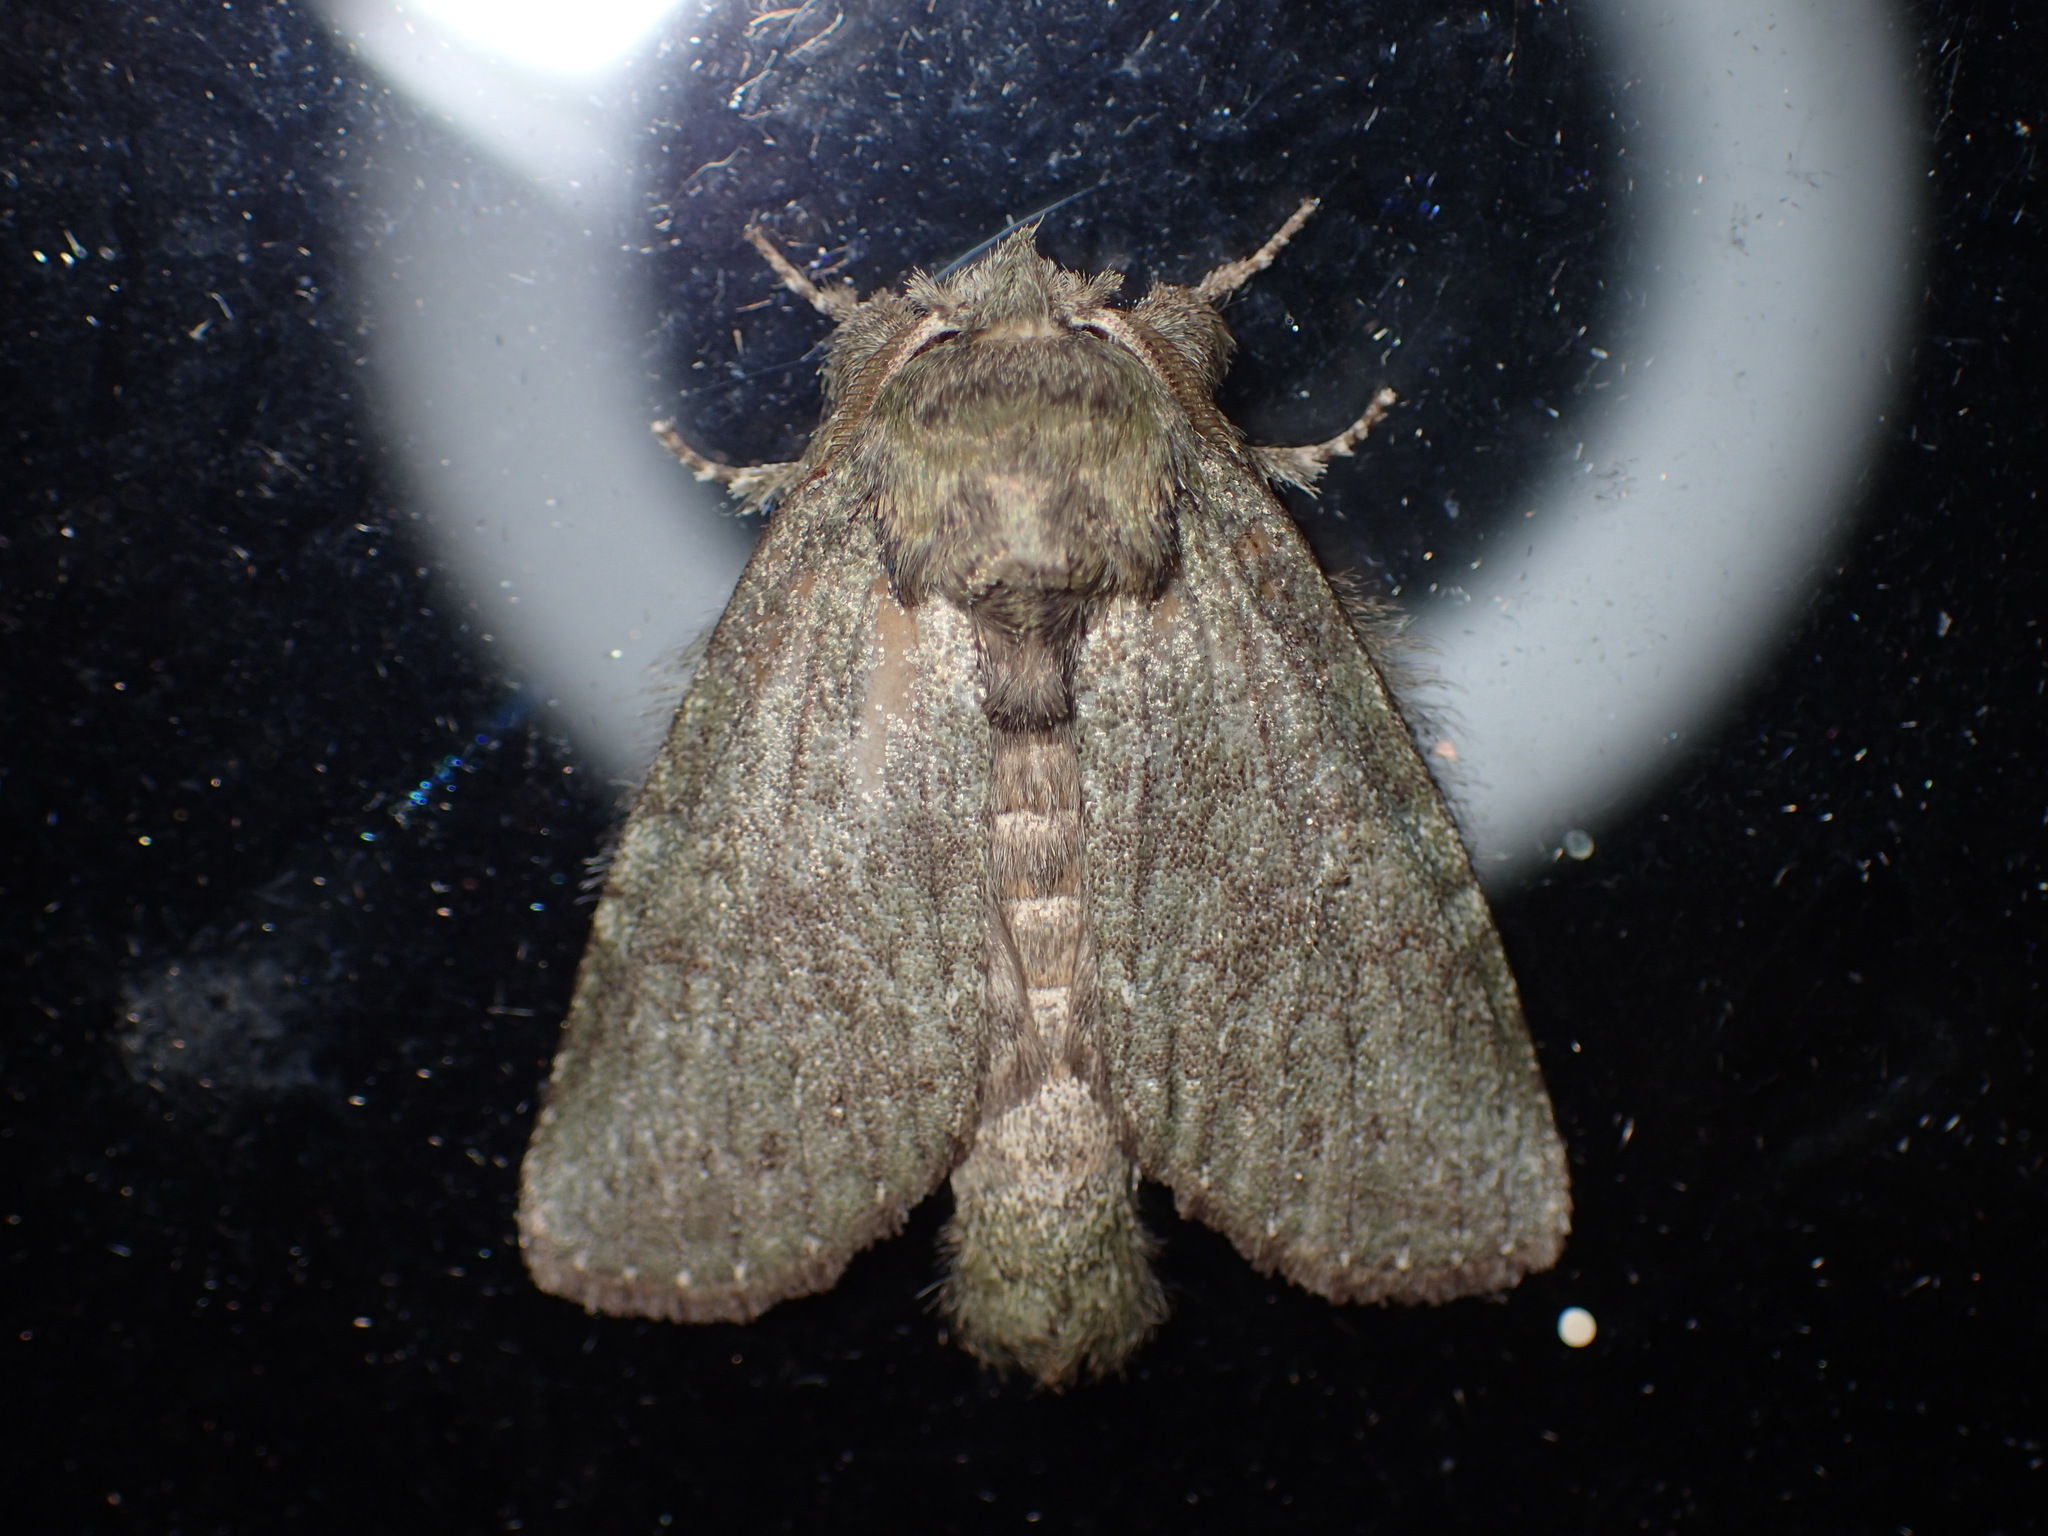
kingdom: Animalia
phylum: Arthropoda
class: Insecta
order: Lepidoptera
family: Notodontidae
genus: Disphragis
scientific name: Disphragis Cecrita guttivitta
